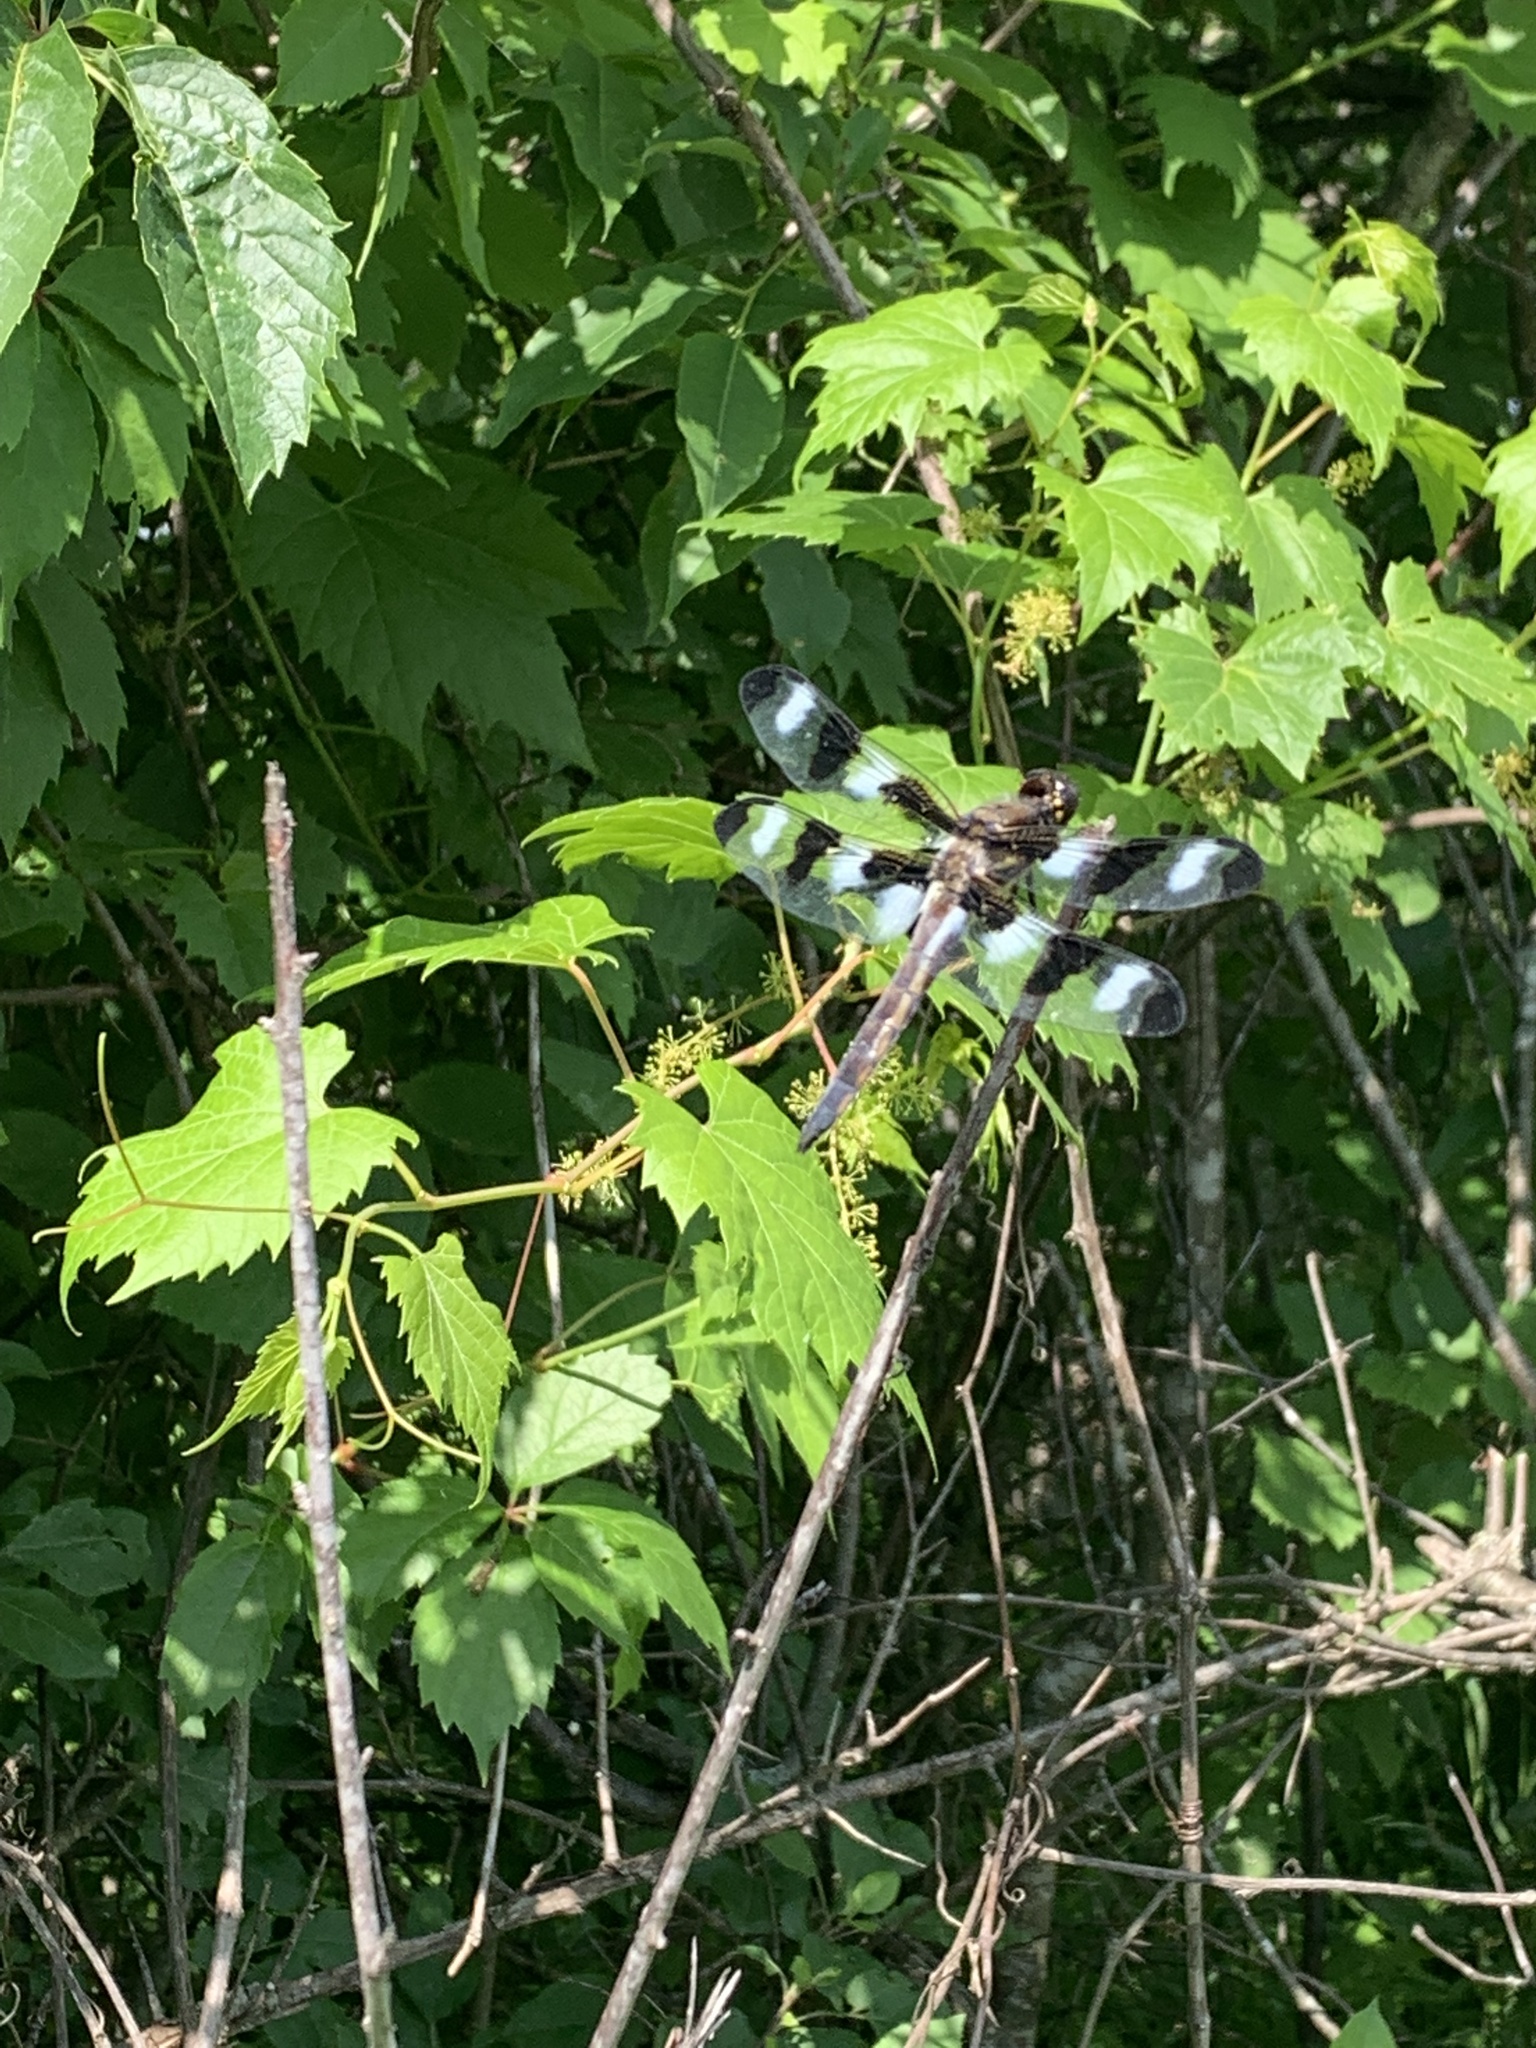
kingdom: Animalia
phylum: Arthropoda
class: Insecta
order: Odonata
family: Libellulidae
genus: Libellula
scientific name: Libellula pulchella
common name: Twelve-spotted skimmer
